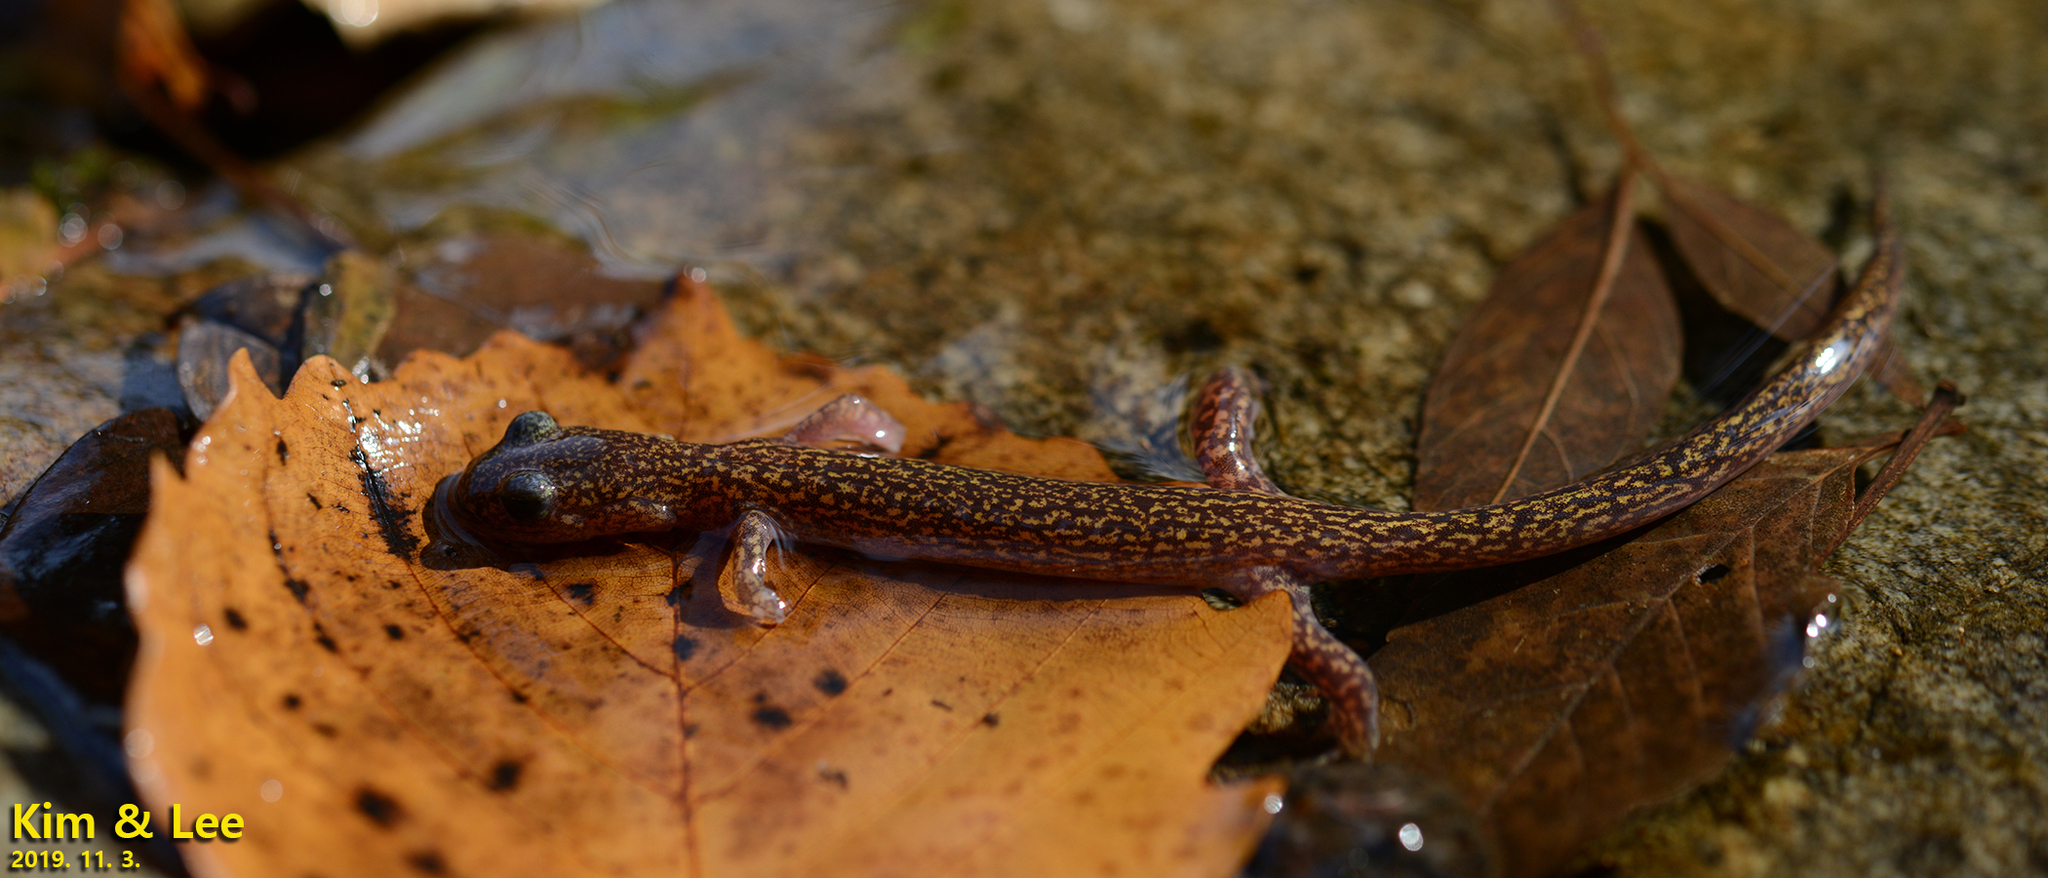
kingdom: Animalia
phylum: Chordata
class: Amphibia
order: Caudata
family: Hynobiidae
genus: Onychodactylus
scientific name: Onychodactylus koreanus
